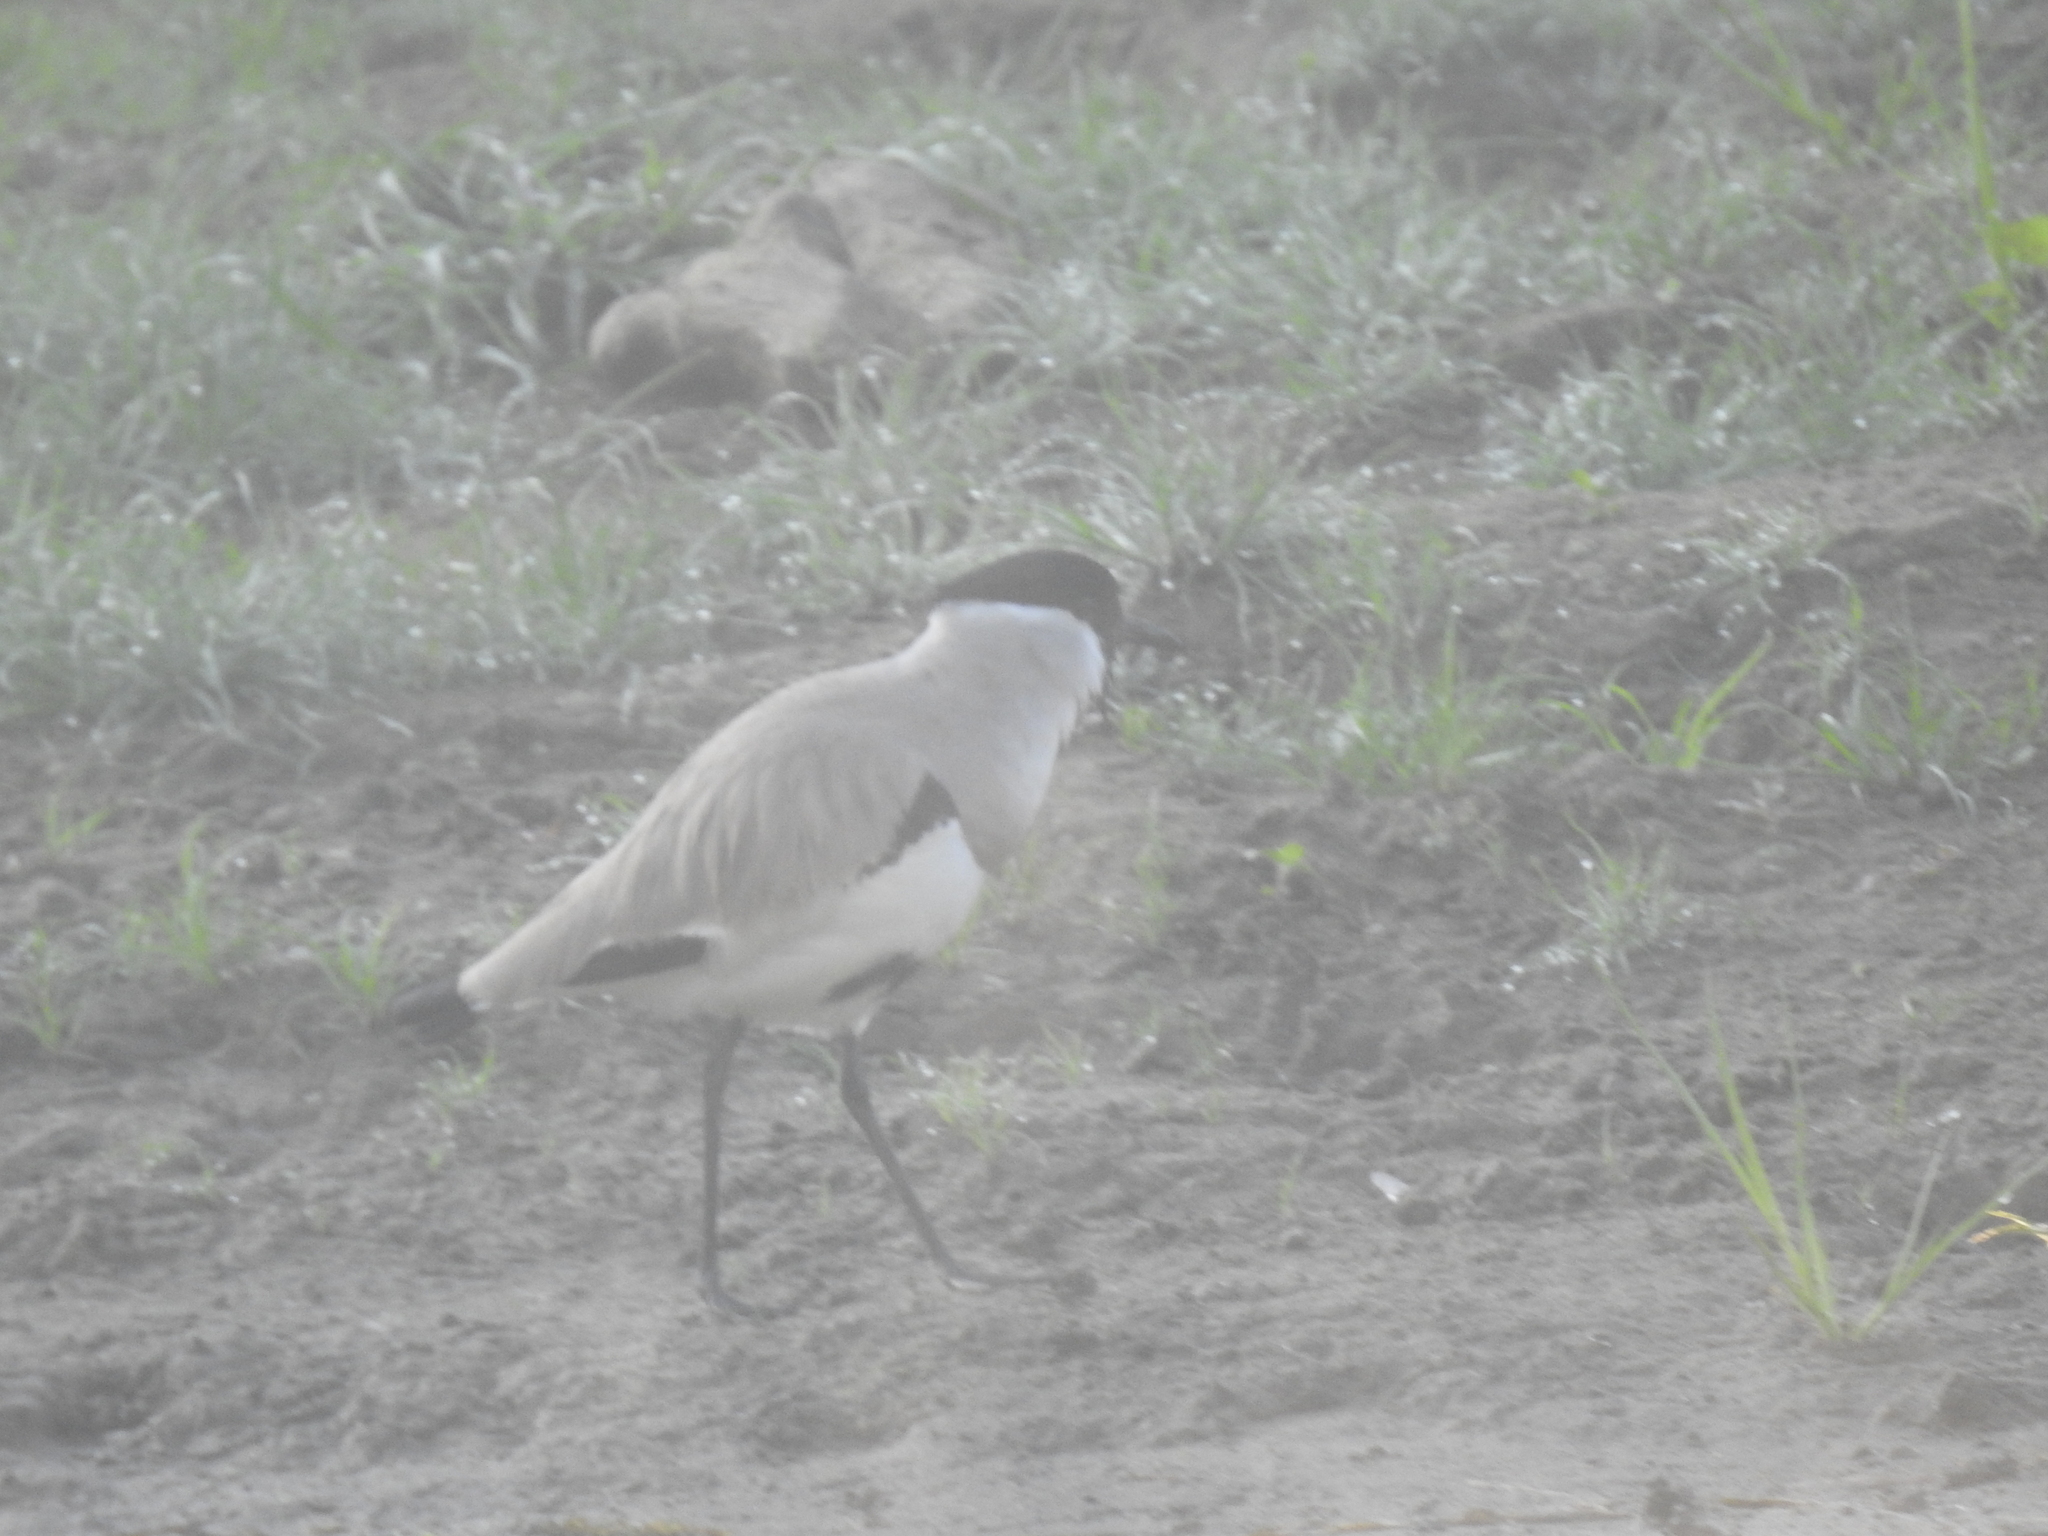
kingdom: Animalia
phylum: Chordata
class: Aves
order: Charadriiformes
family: Charadriidae
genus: Vanellus
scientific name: Vanellus duvaucelii
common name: River lapwing
